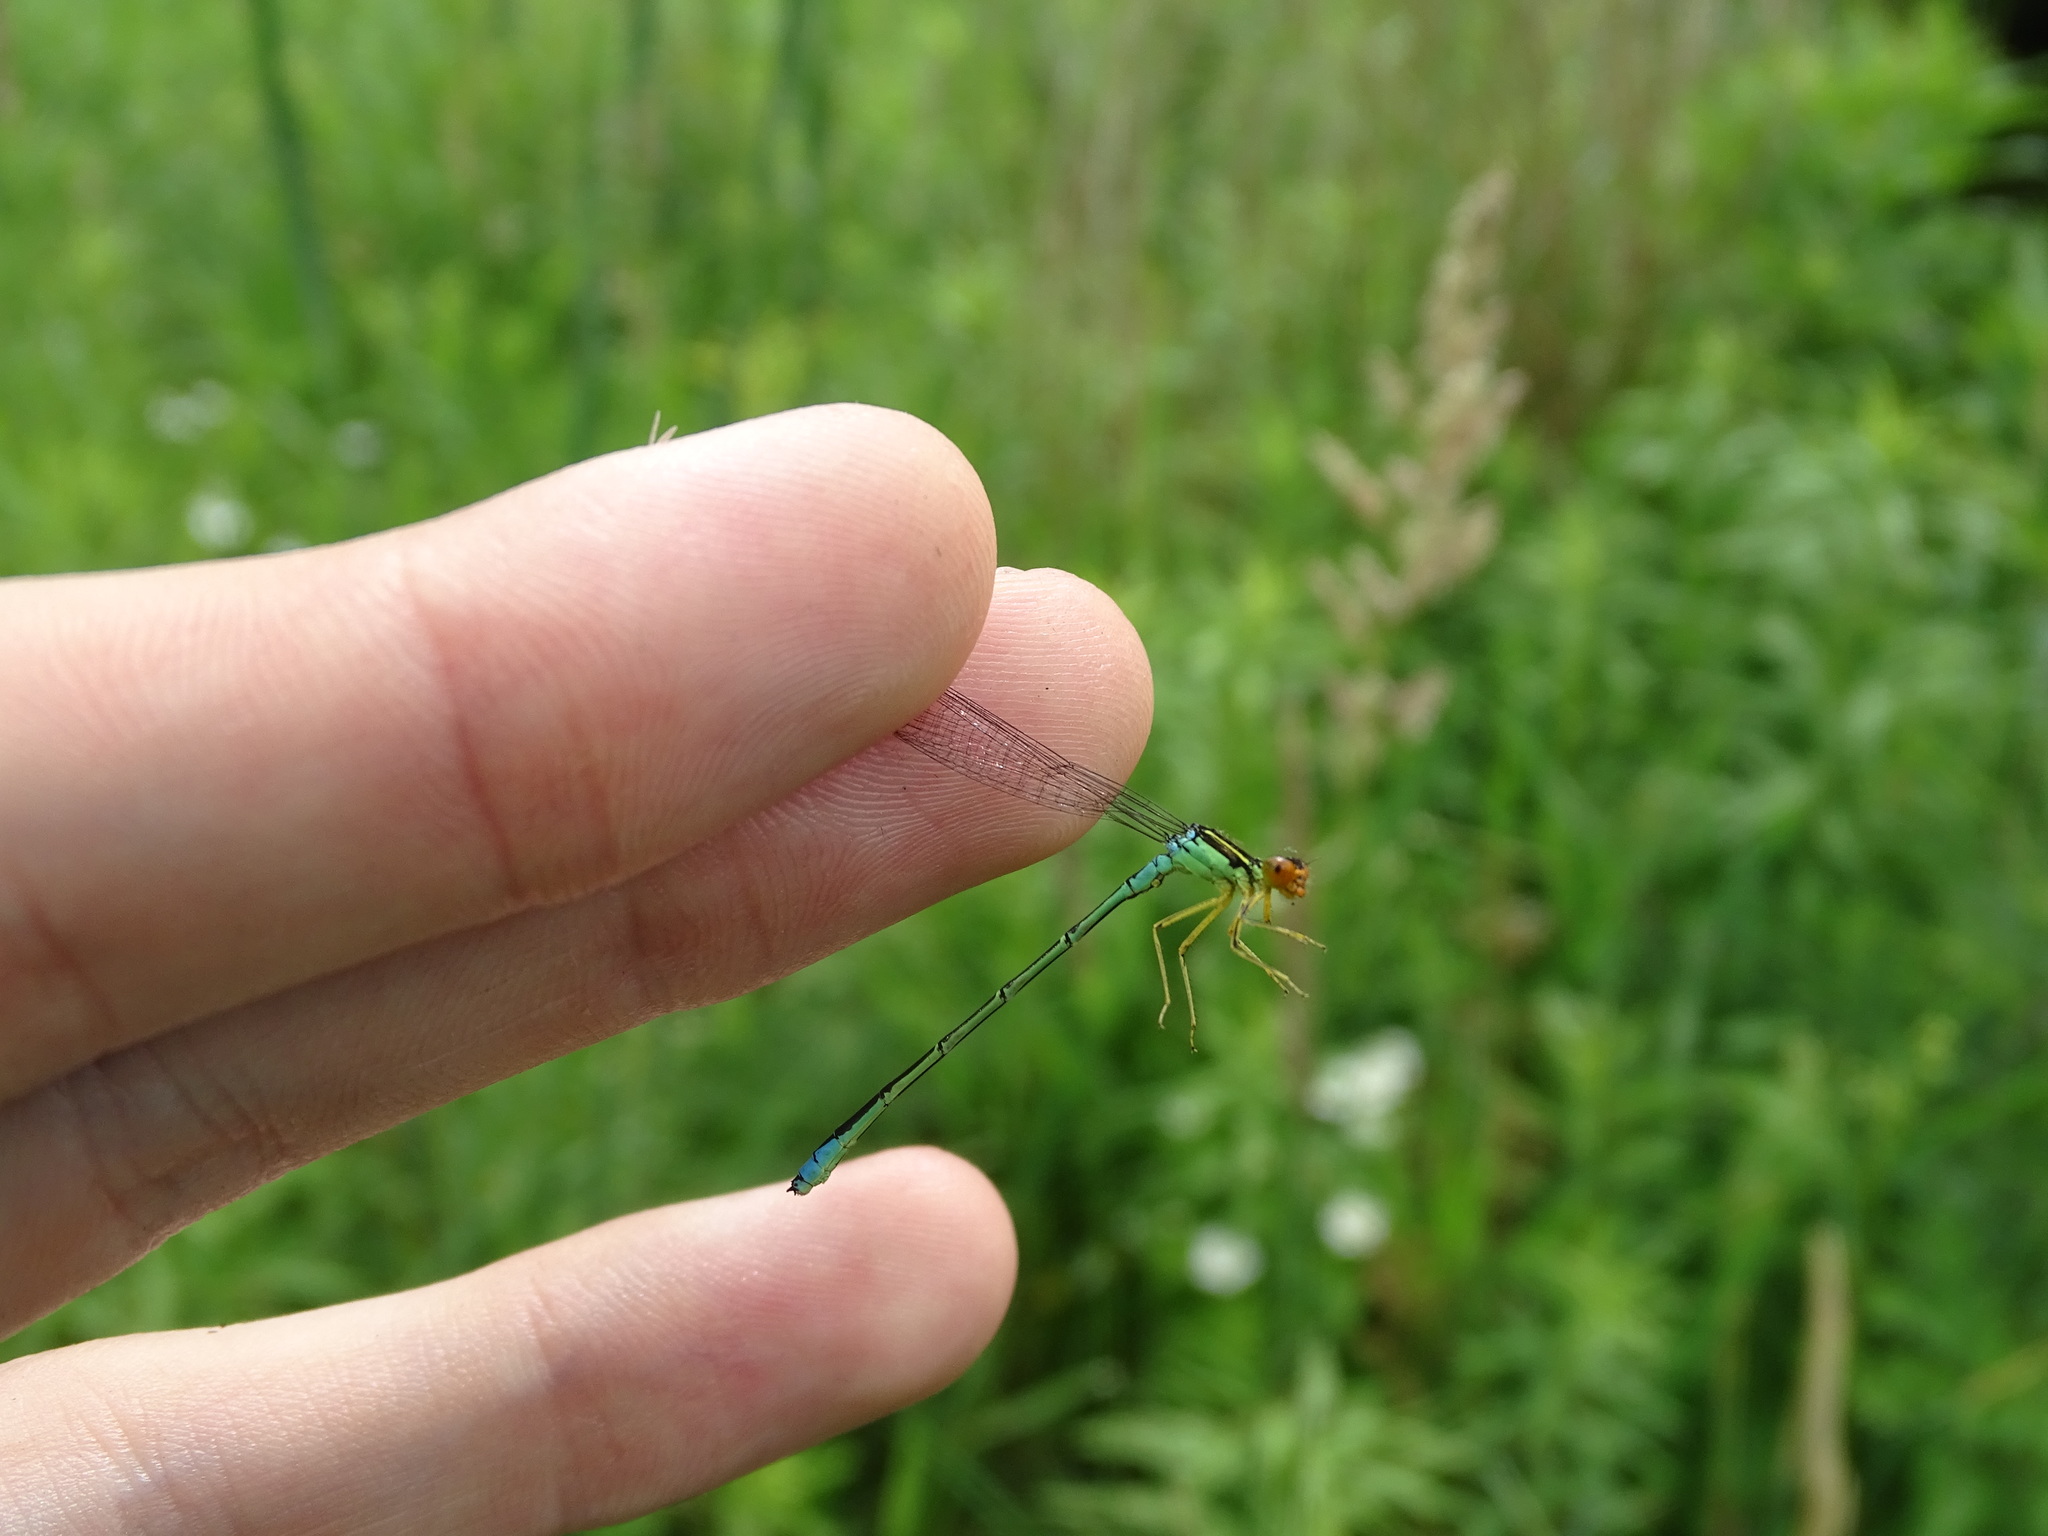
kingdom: Animalia
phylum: Arthropoda
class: Insecta
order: Odonata
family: Coenagrionidae
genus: Enallagma
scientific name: Enallagma antennatum
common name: Rainbow bluet
